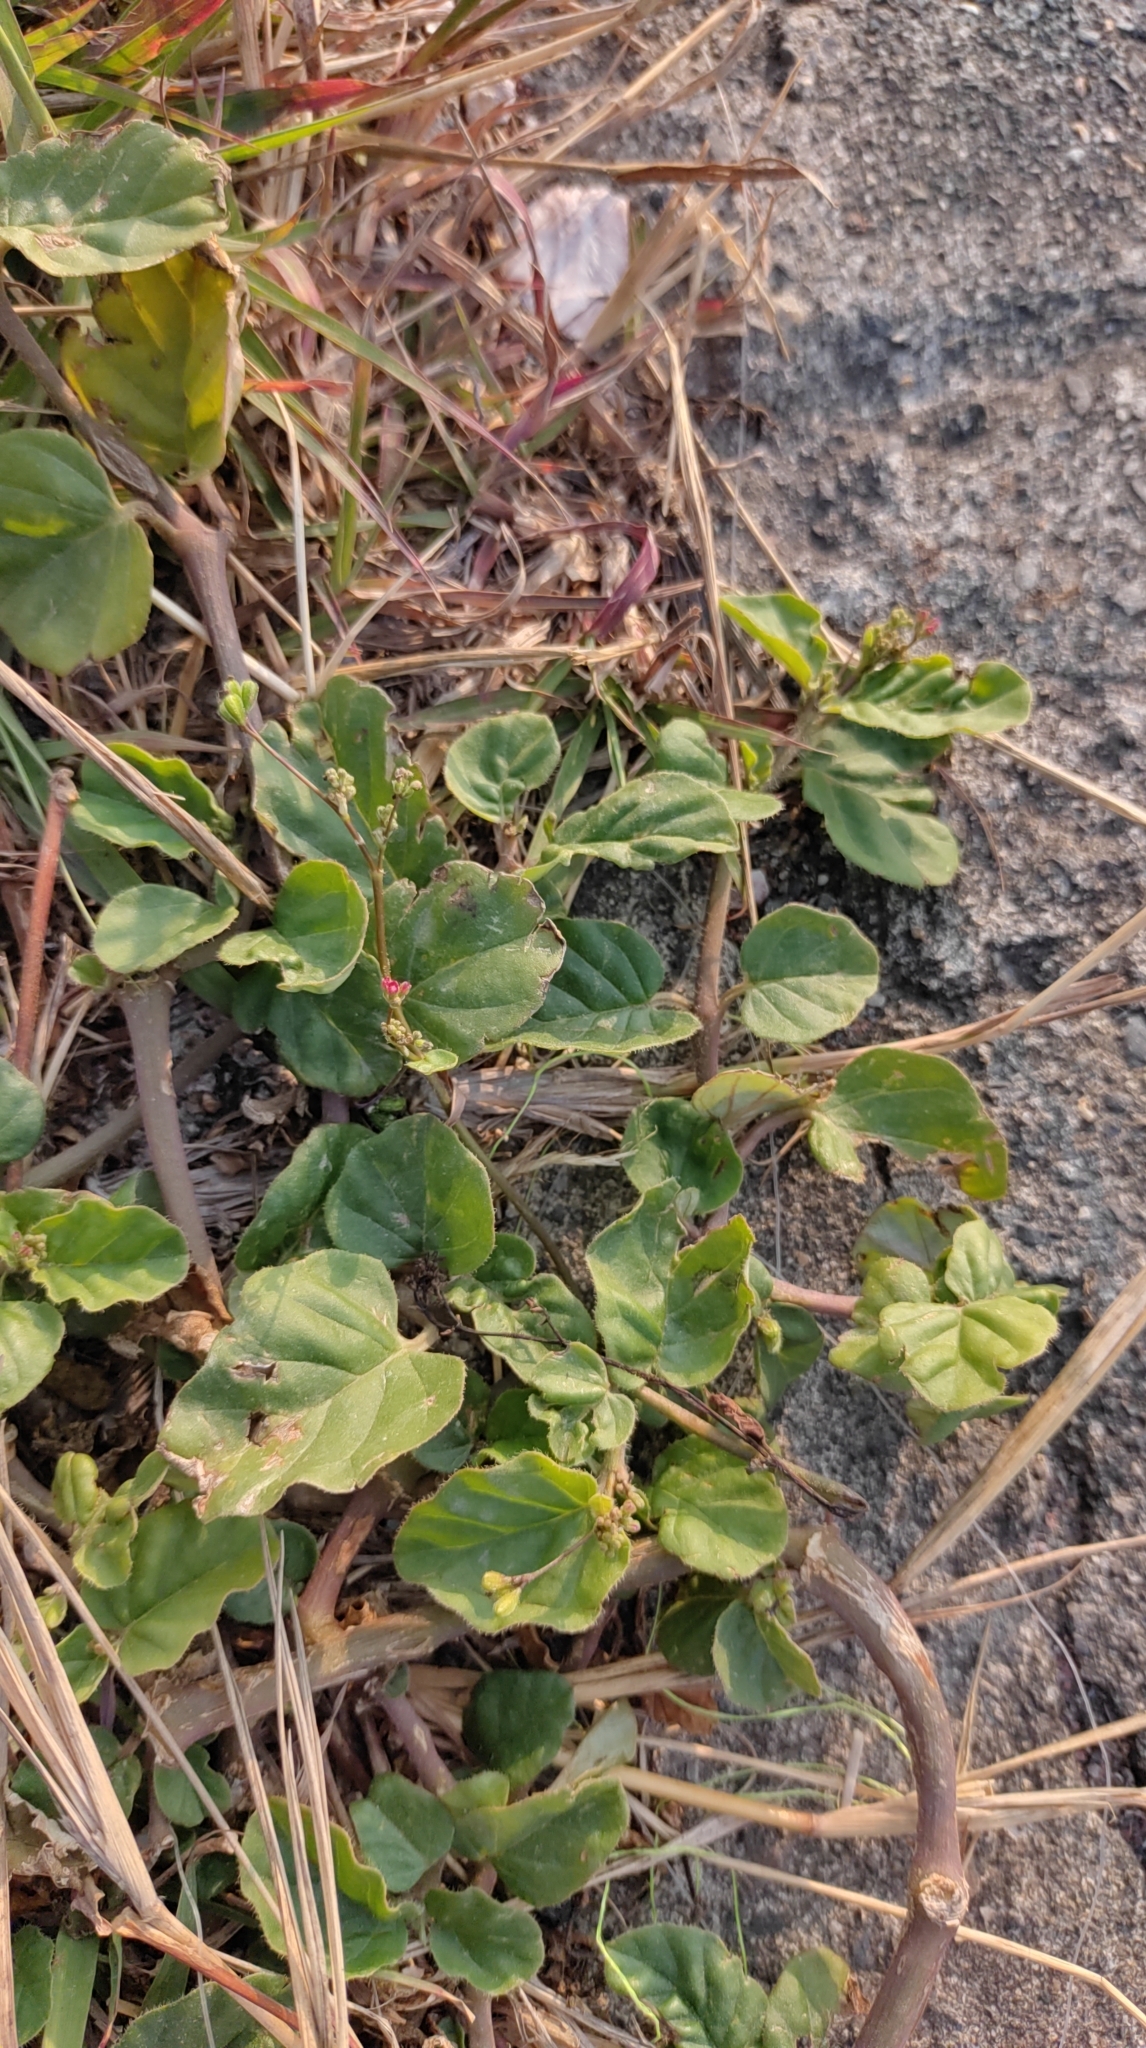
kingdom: Plantae
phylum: Tracheophyta
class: Magnoliopsida
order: Caryophyllales
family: Nyctaginaceae
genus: Boerhavia
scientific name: Boerhavia coccinea
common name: Scarlet spiderling
